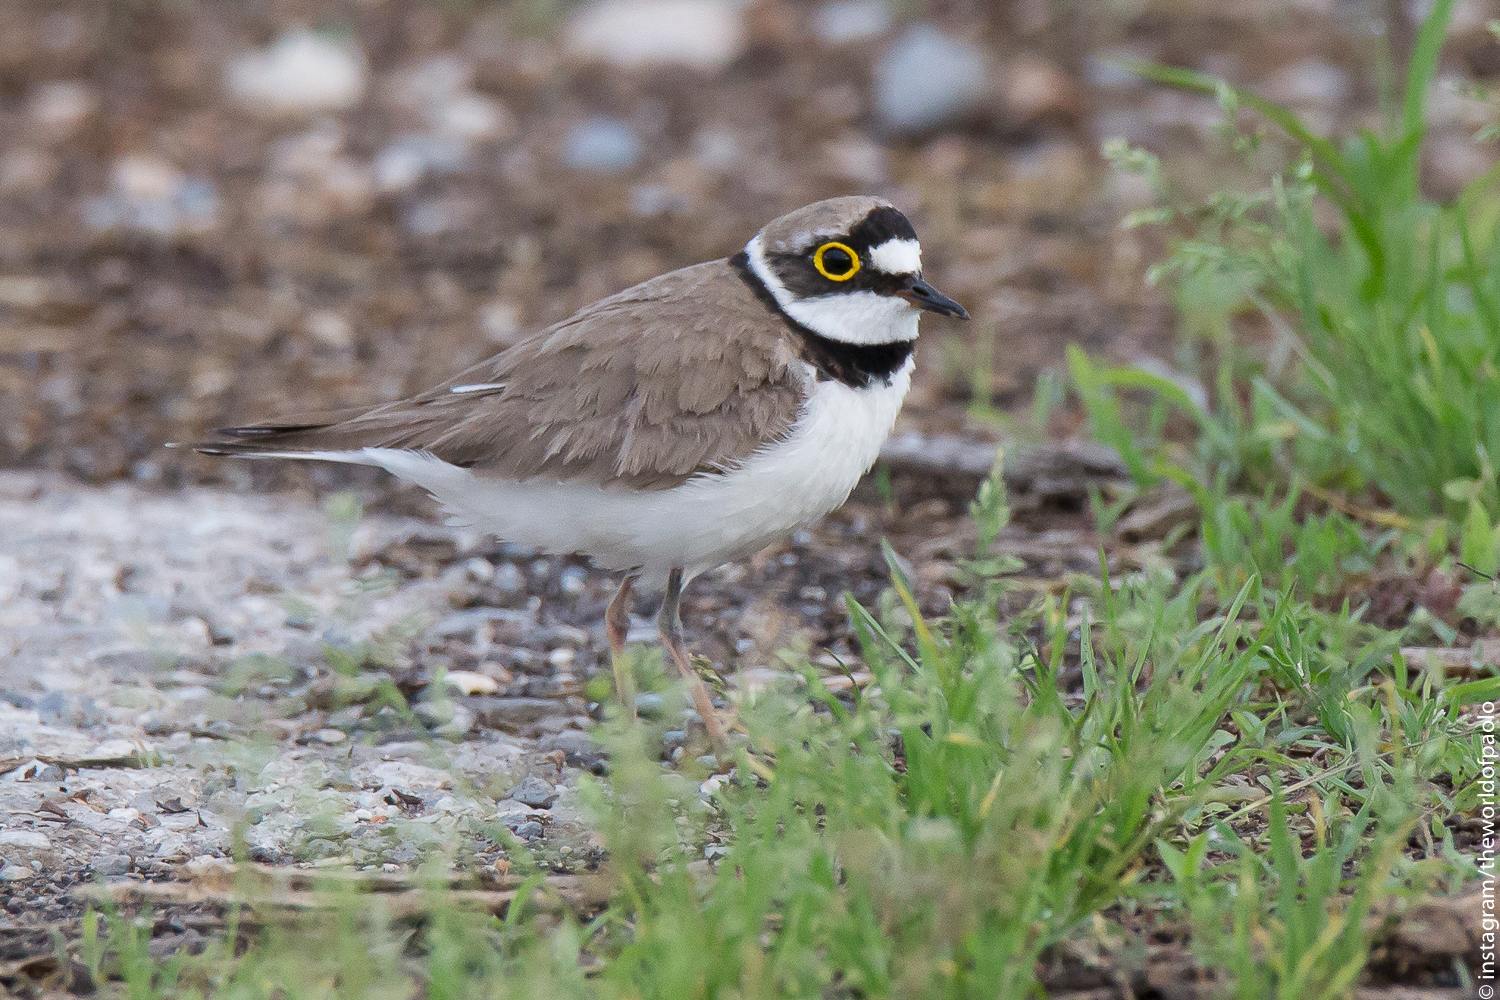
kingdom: Animalia
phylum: Chordata
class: Aves
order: Charadriiformes
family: Charadriidae
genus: Charadrius
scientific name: Charadrius dubius
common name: Little ringed plover
